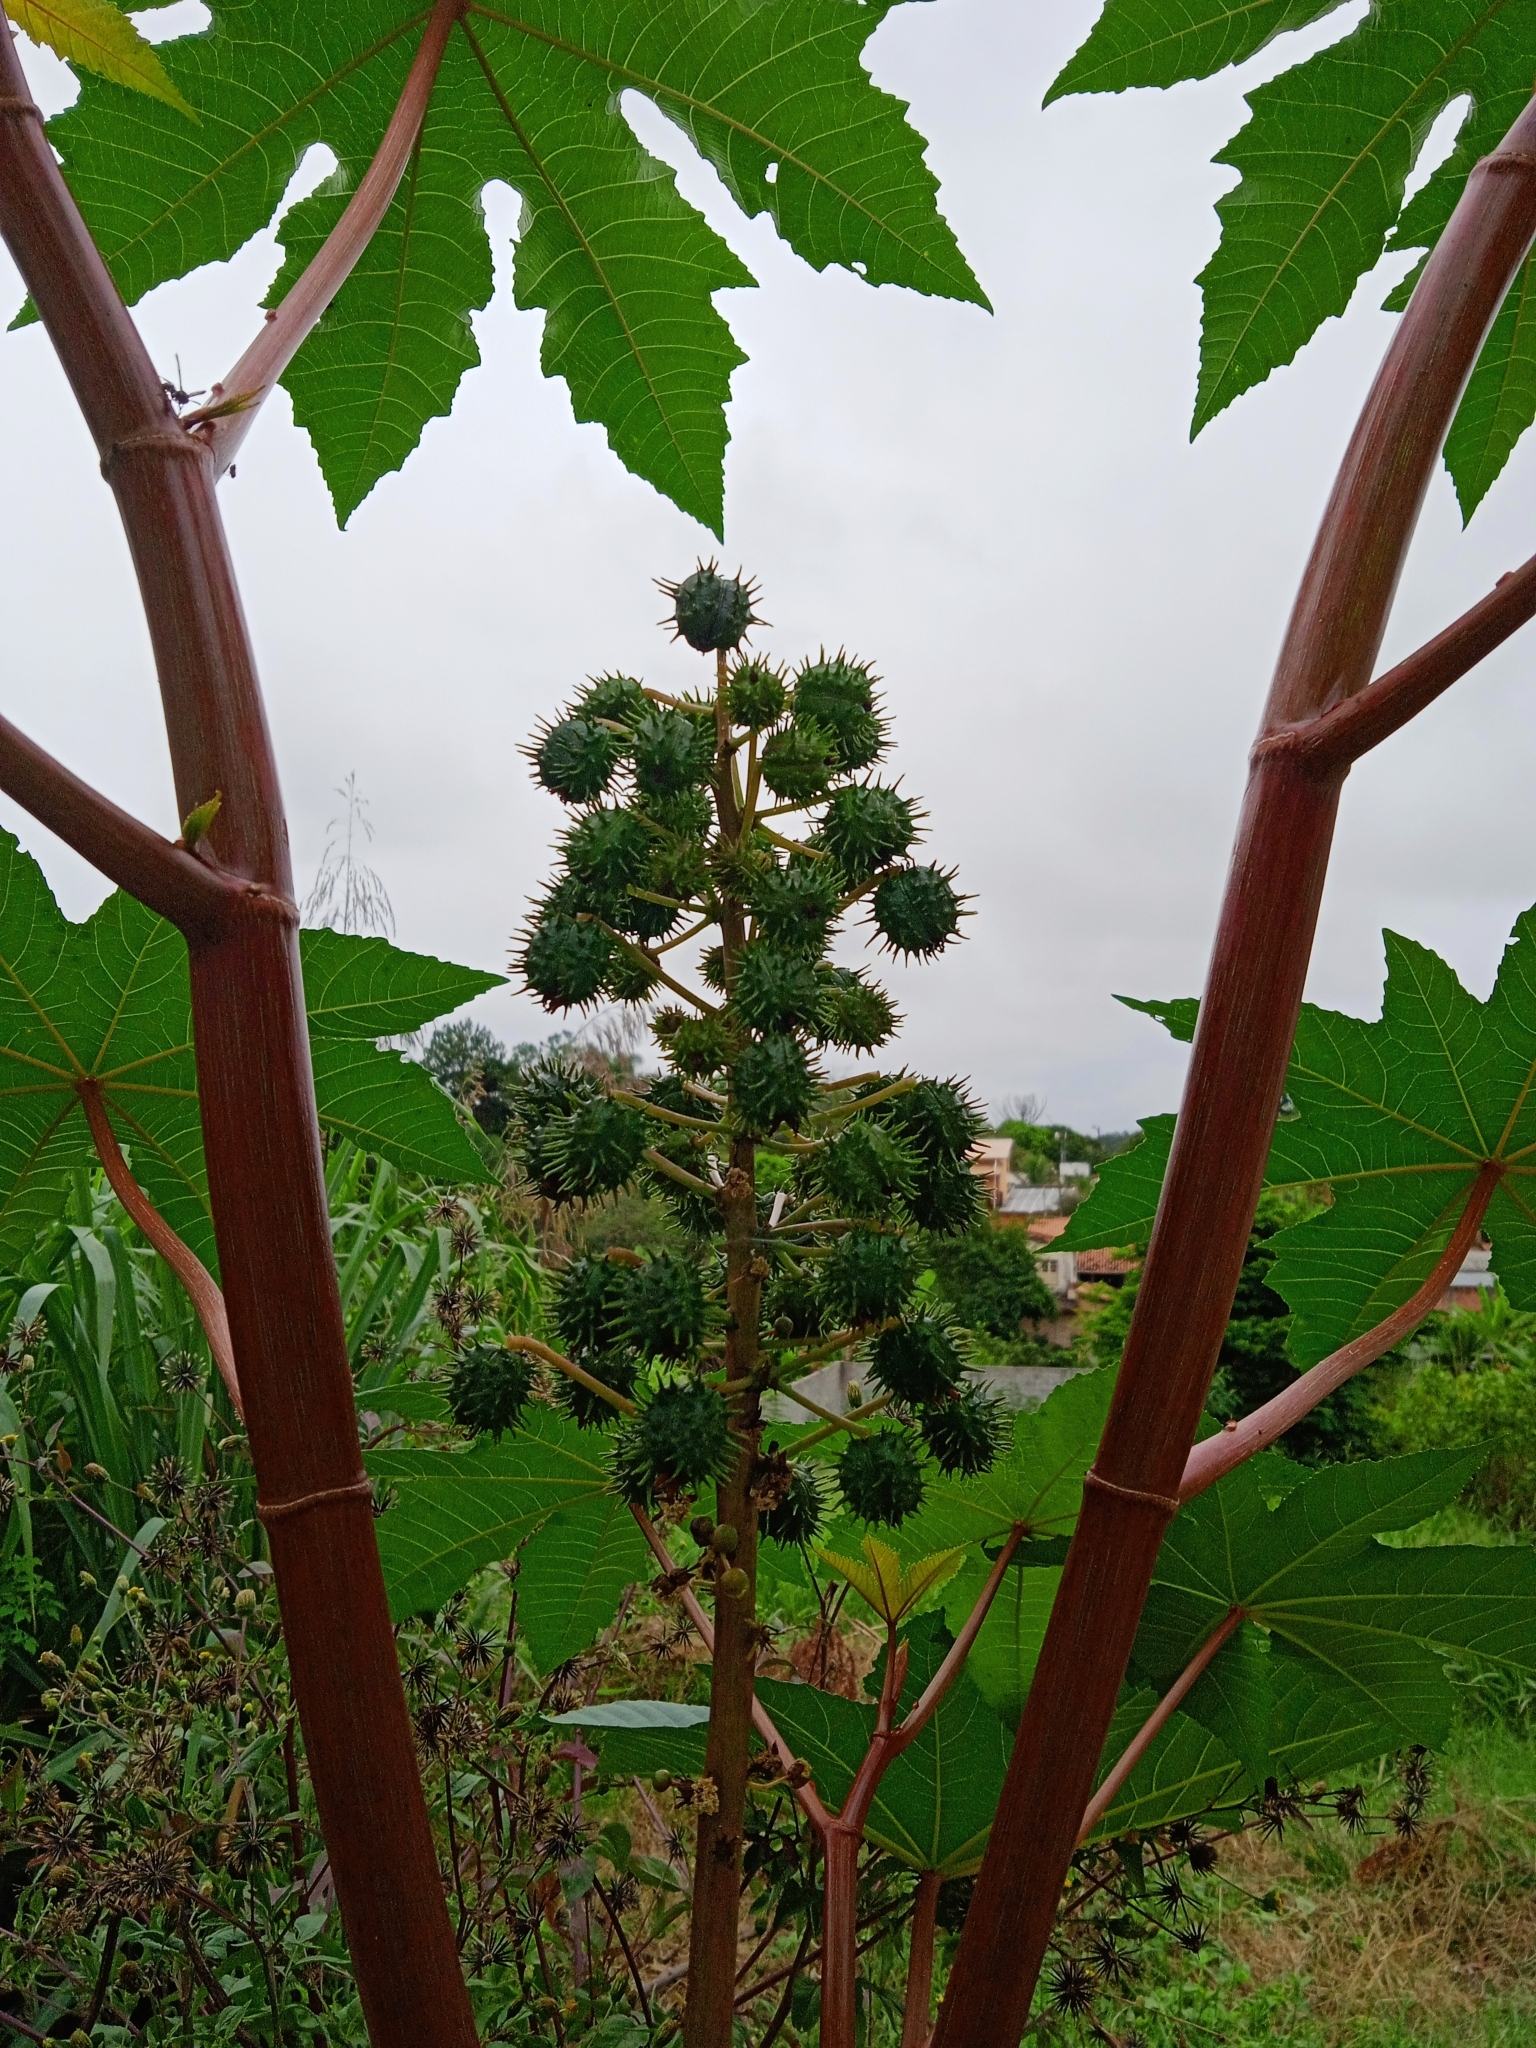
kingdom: Plantae
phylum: Tracheophyta
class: Magnoliopsida
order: Malpighiales
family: Euphorbiaceae
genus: Ricinus
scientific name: Ricinus communis
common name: Castor-oil-plant
